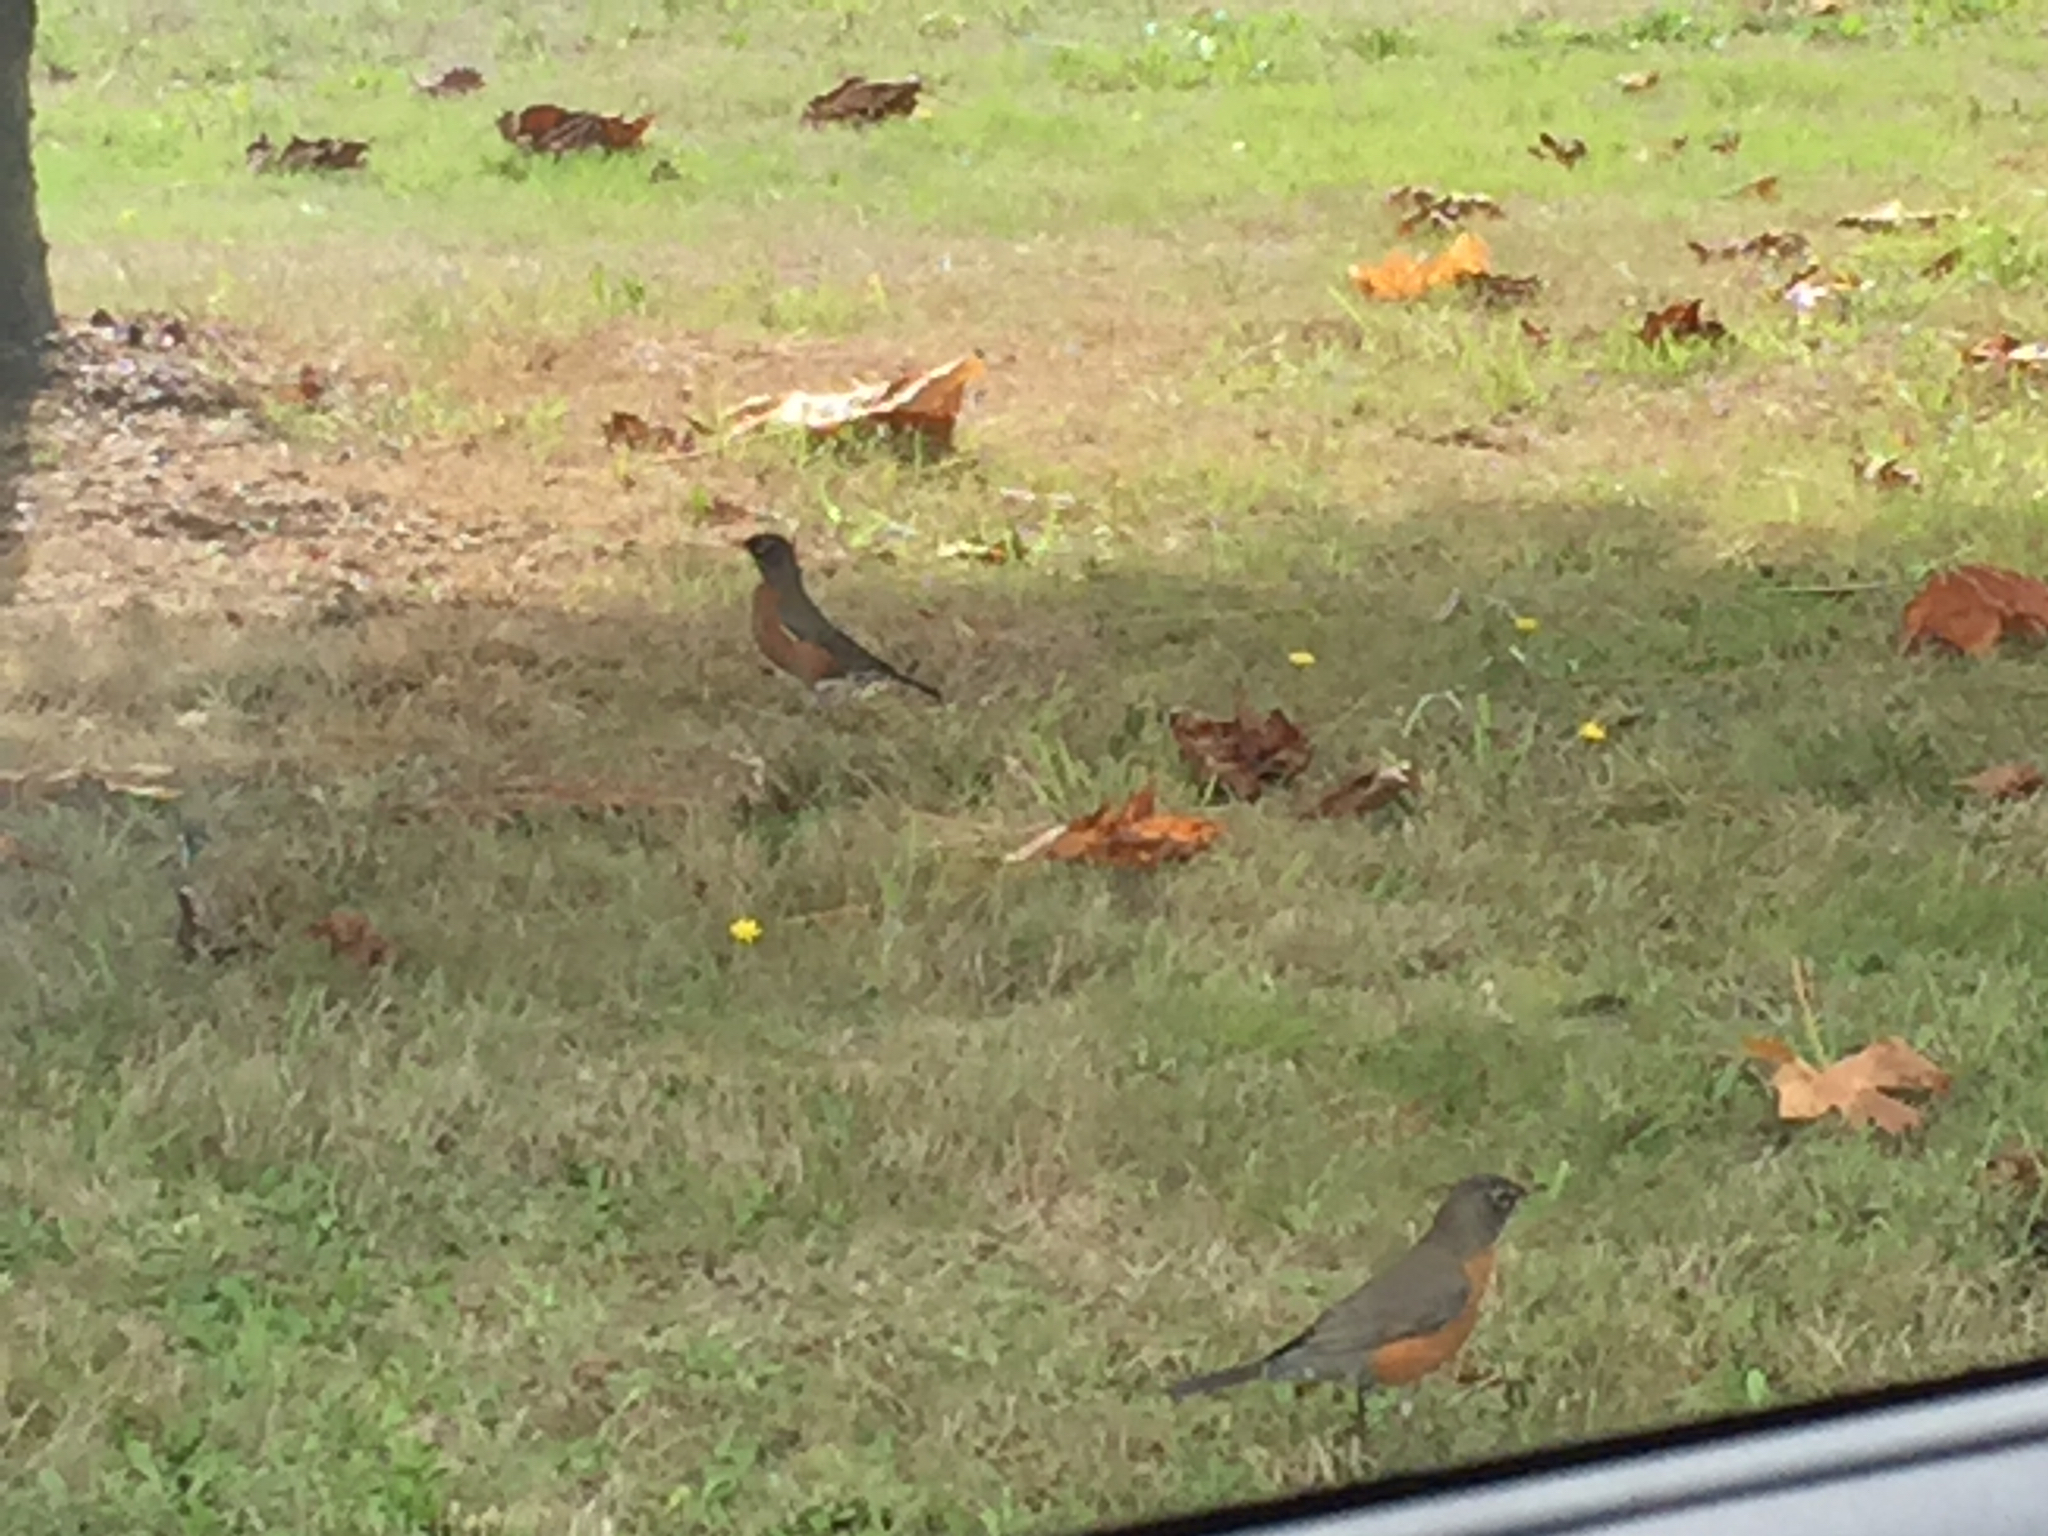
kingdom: Animalia
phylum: Chordata
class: Aves
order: Passeriformes
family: Turdidae
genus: Turdus
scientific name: Turdus migratorius
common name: American robin
